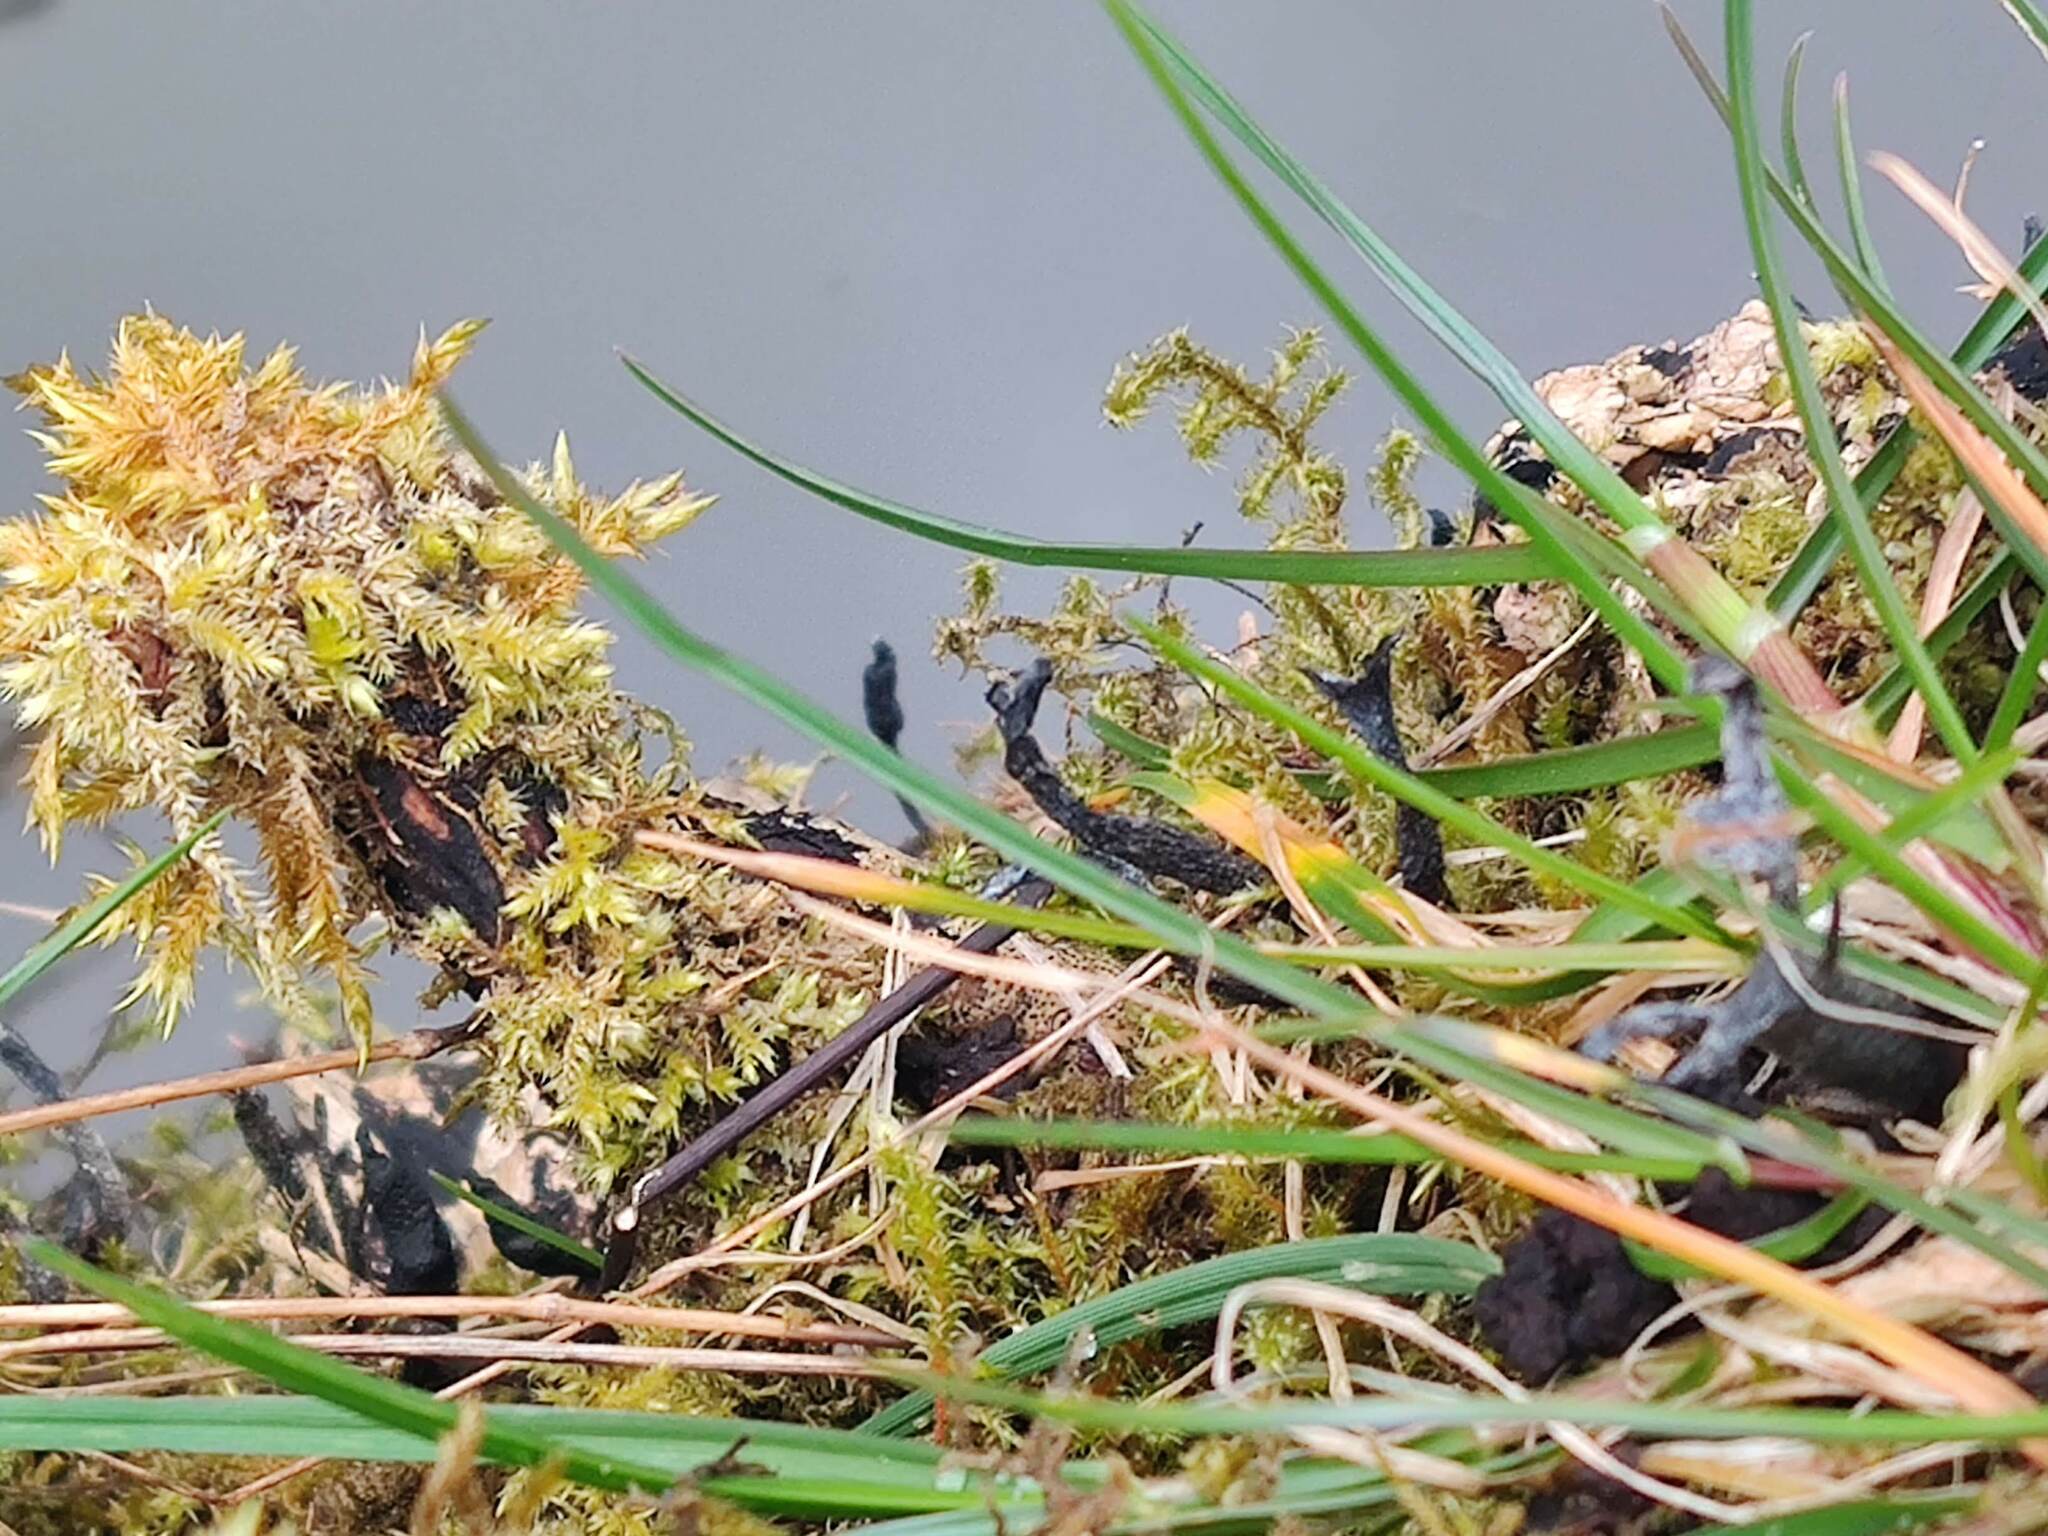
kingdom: Fungi
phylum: Ascomycota
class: Sordariomycetes
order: Xylariales
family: Xylariaceae
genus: Xylaria
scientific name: Xylaria hypoxylon
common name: Candle-snuff fungus
